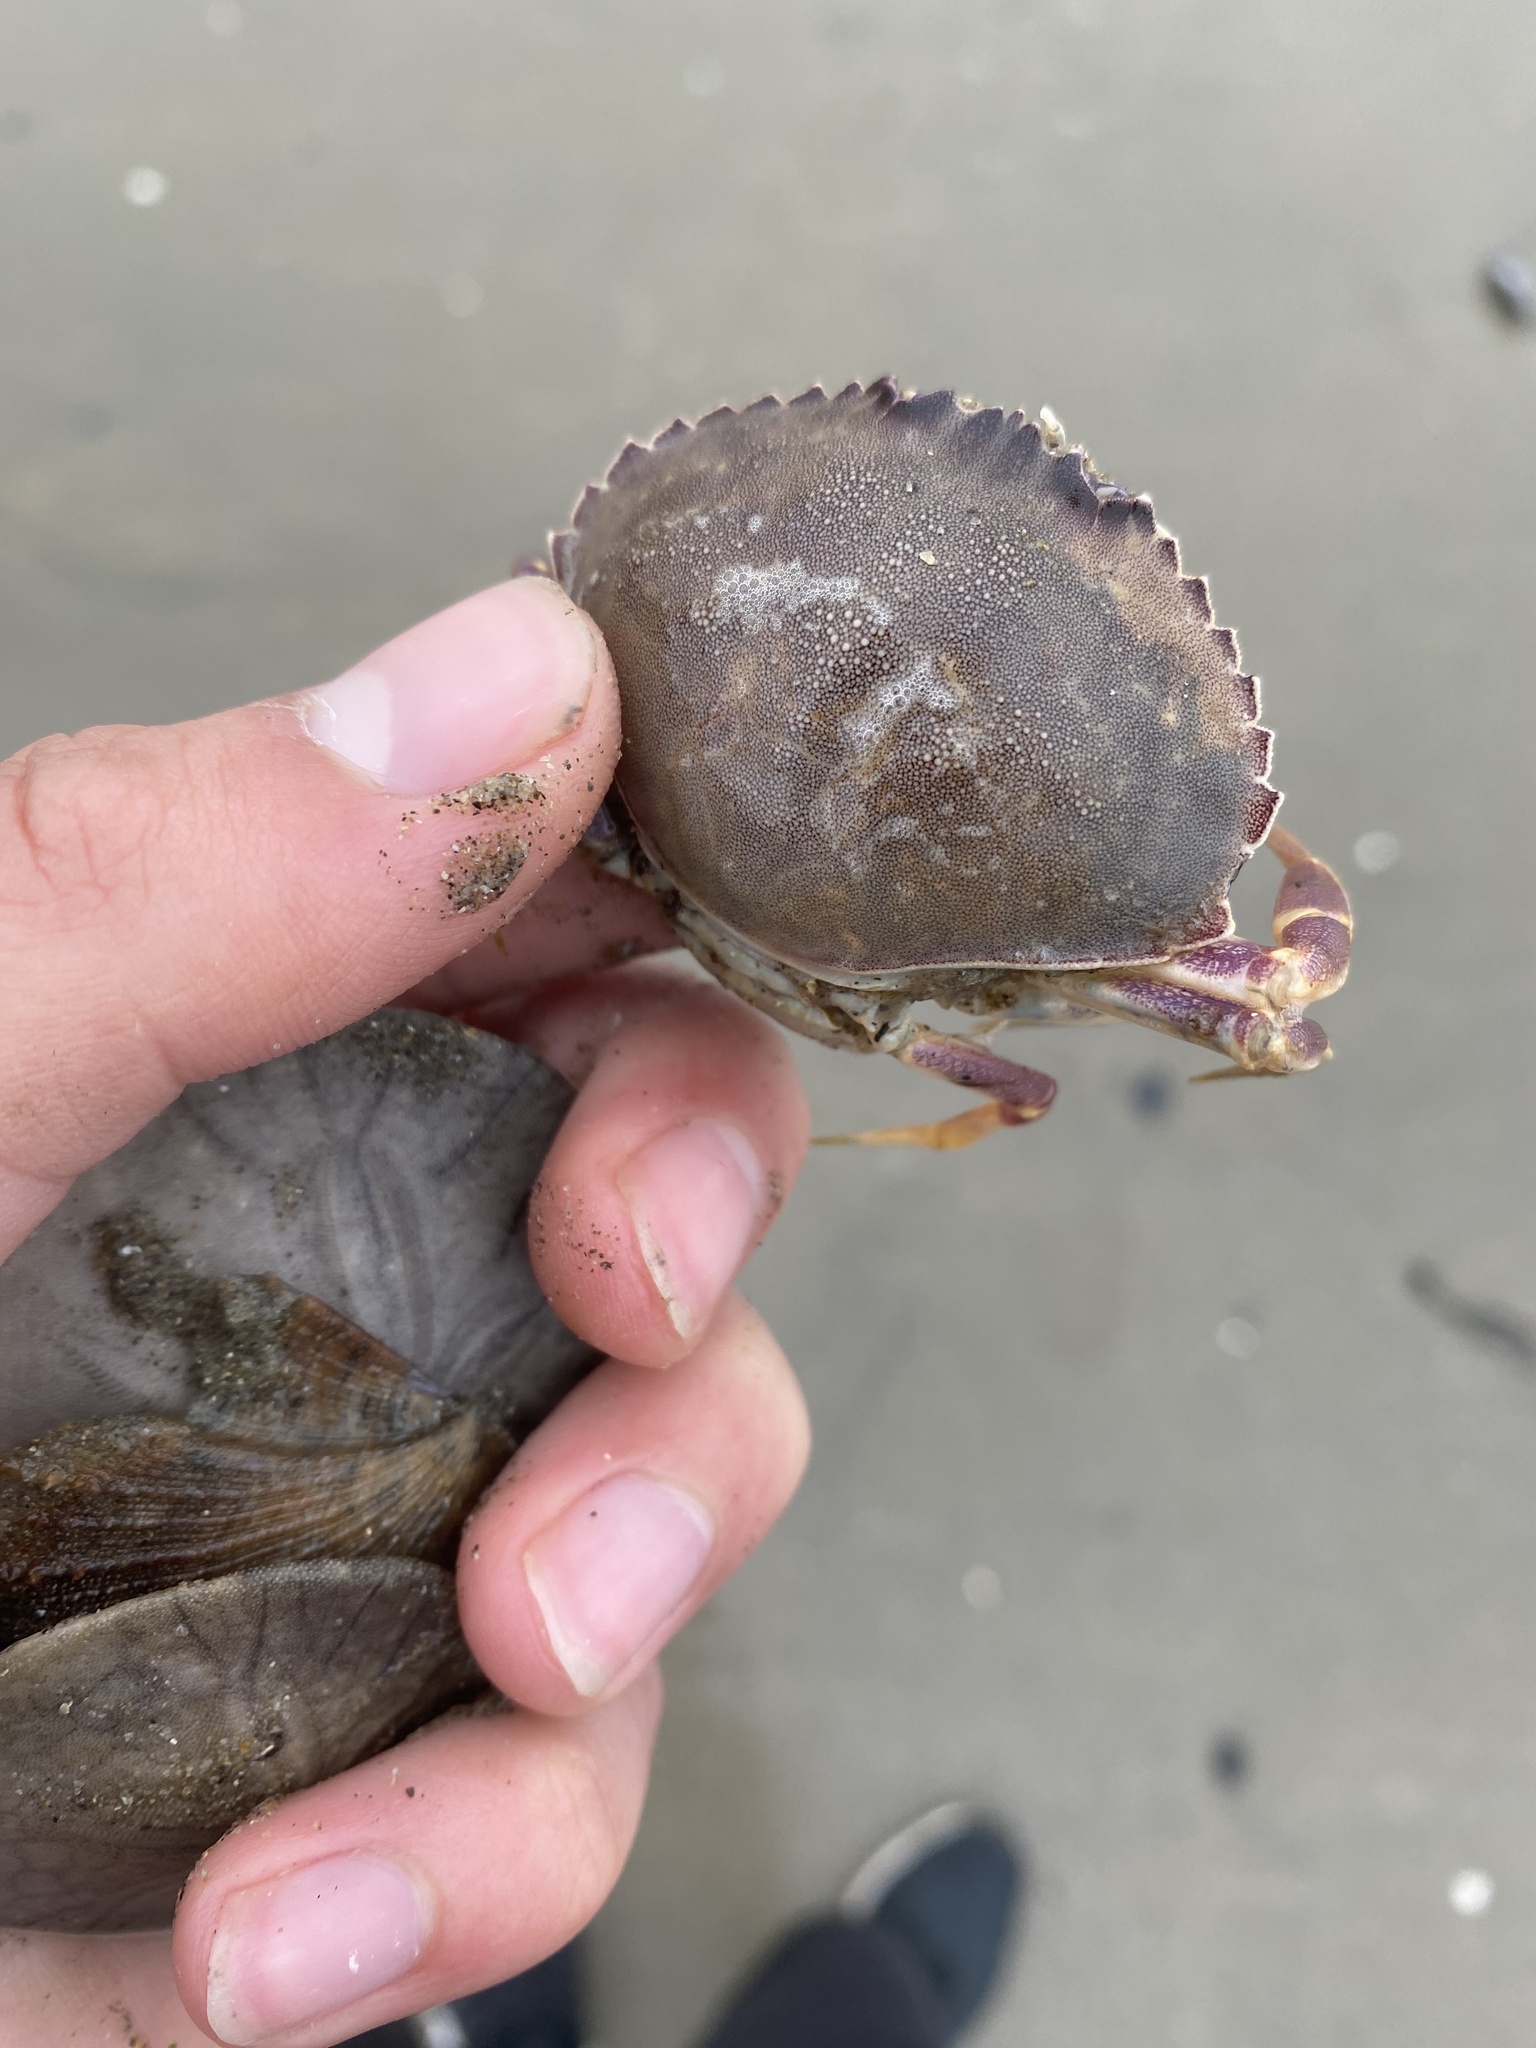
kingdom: Animalia
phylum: Arthropoda
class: Malacostraca
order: Decapoda
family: Cancridae
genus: Metacarcinus
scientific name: Metacarcinus gracilis
